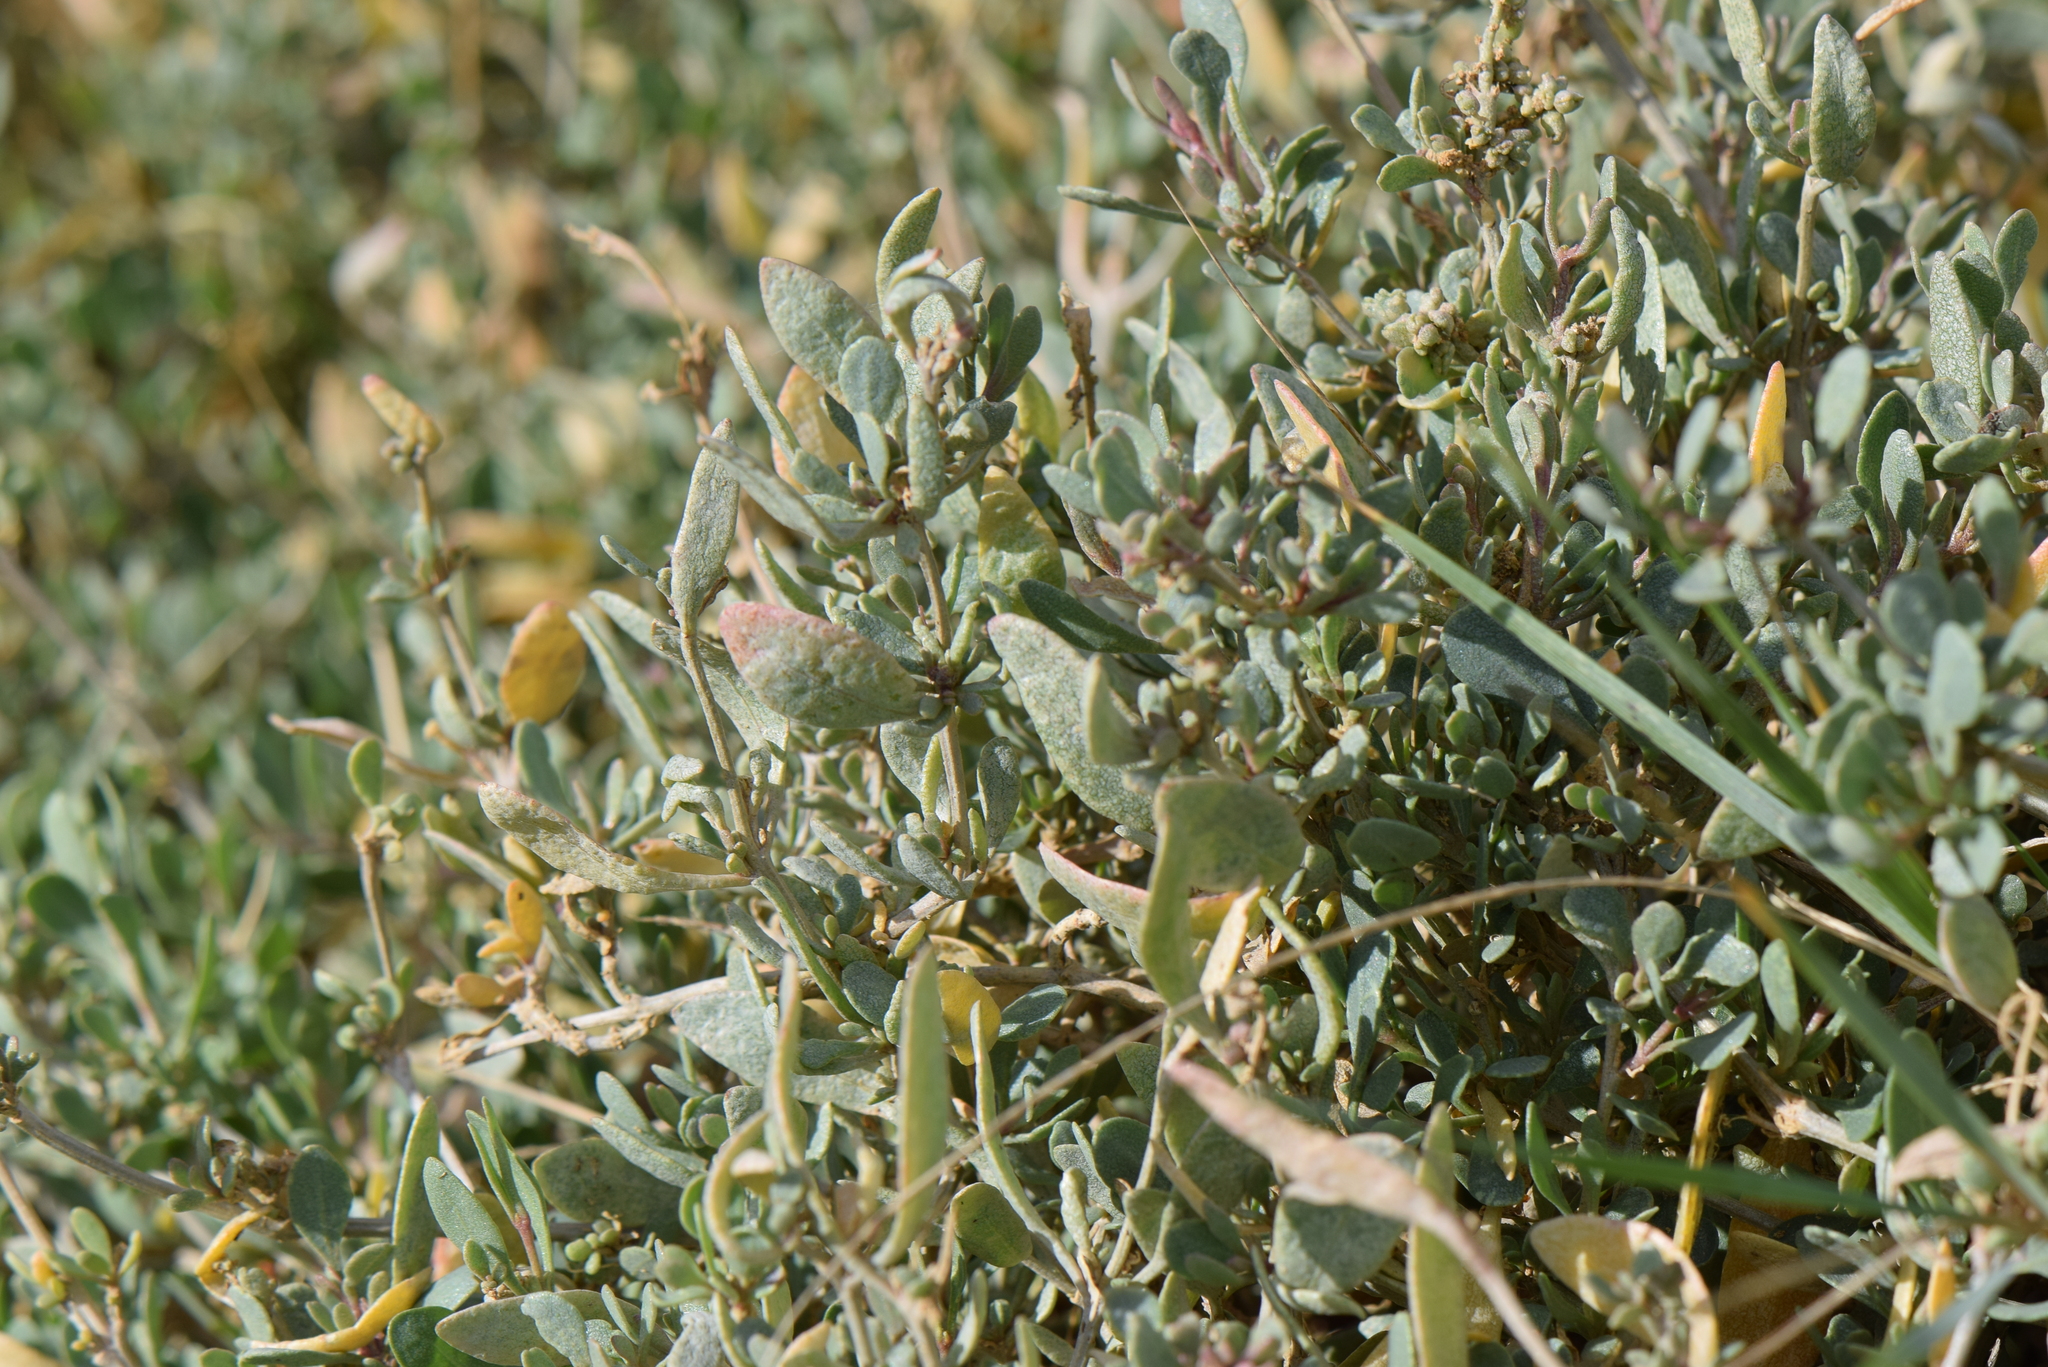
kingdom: Plantae
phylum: Tracheophyta
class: Magnoliopsida
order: Caryophyllales
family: Amaranthaceae
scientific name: Amaranthaceae
